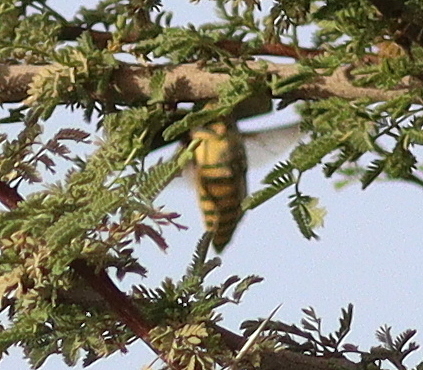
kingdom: Animalia
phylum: Arthropoda
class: Insecta
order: Coleoptera
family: Buprestidae
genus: Steraspis
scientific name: Steraspis speciosa
